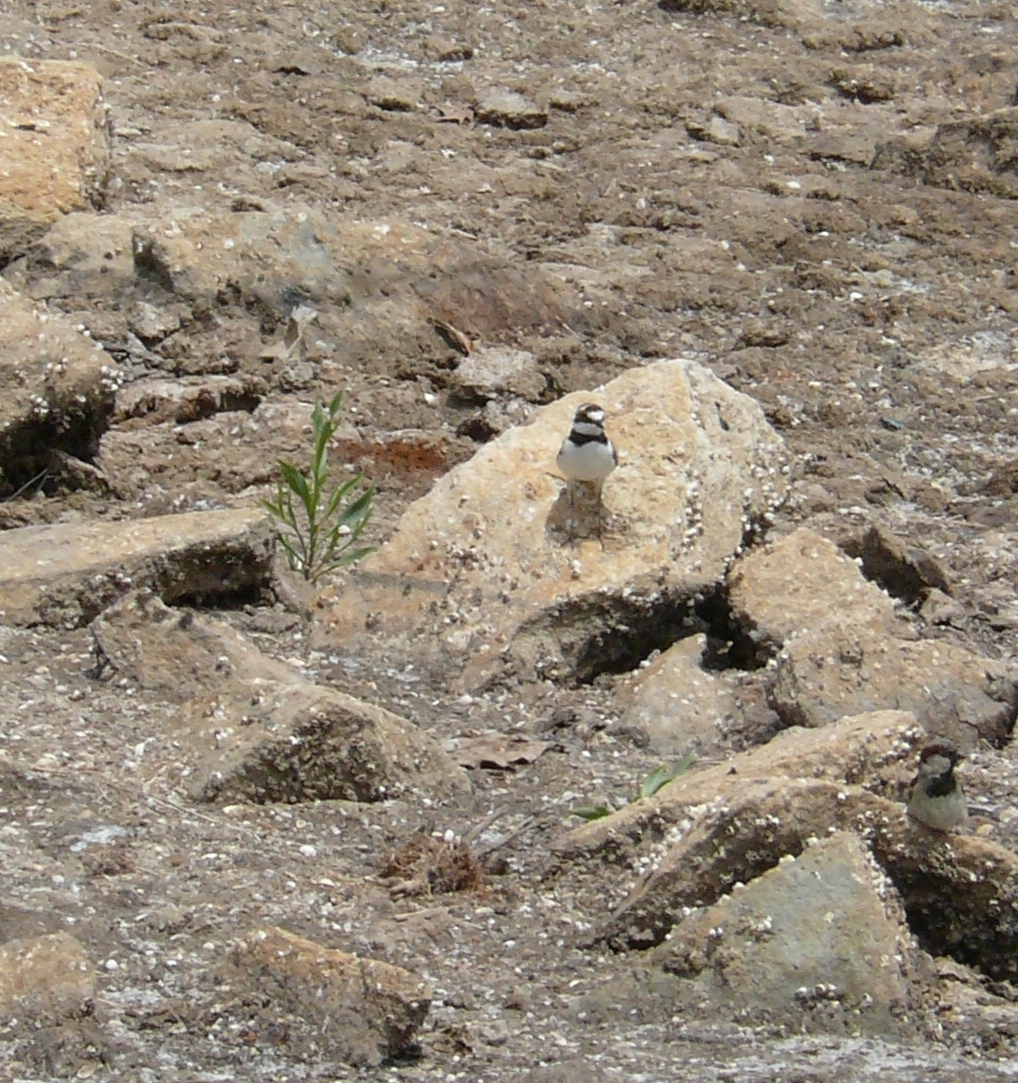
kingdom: Animalia
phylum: Chordata
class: Aves
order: Charadriiformes
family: Charadriidae
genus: Charadrius
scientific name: Charadrius dubius
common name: Little ringed plover
